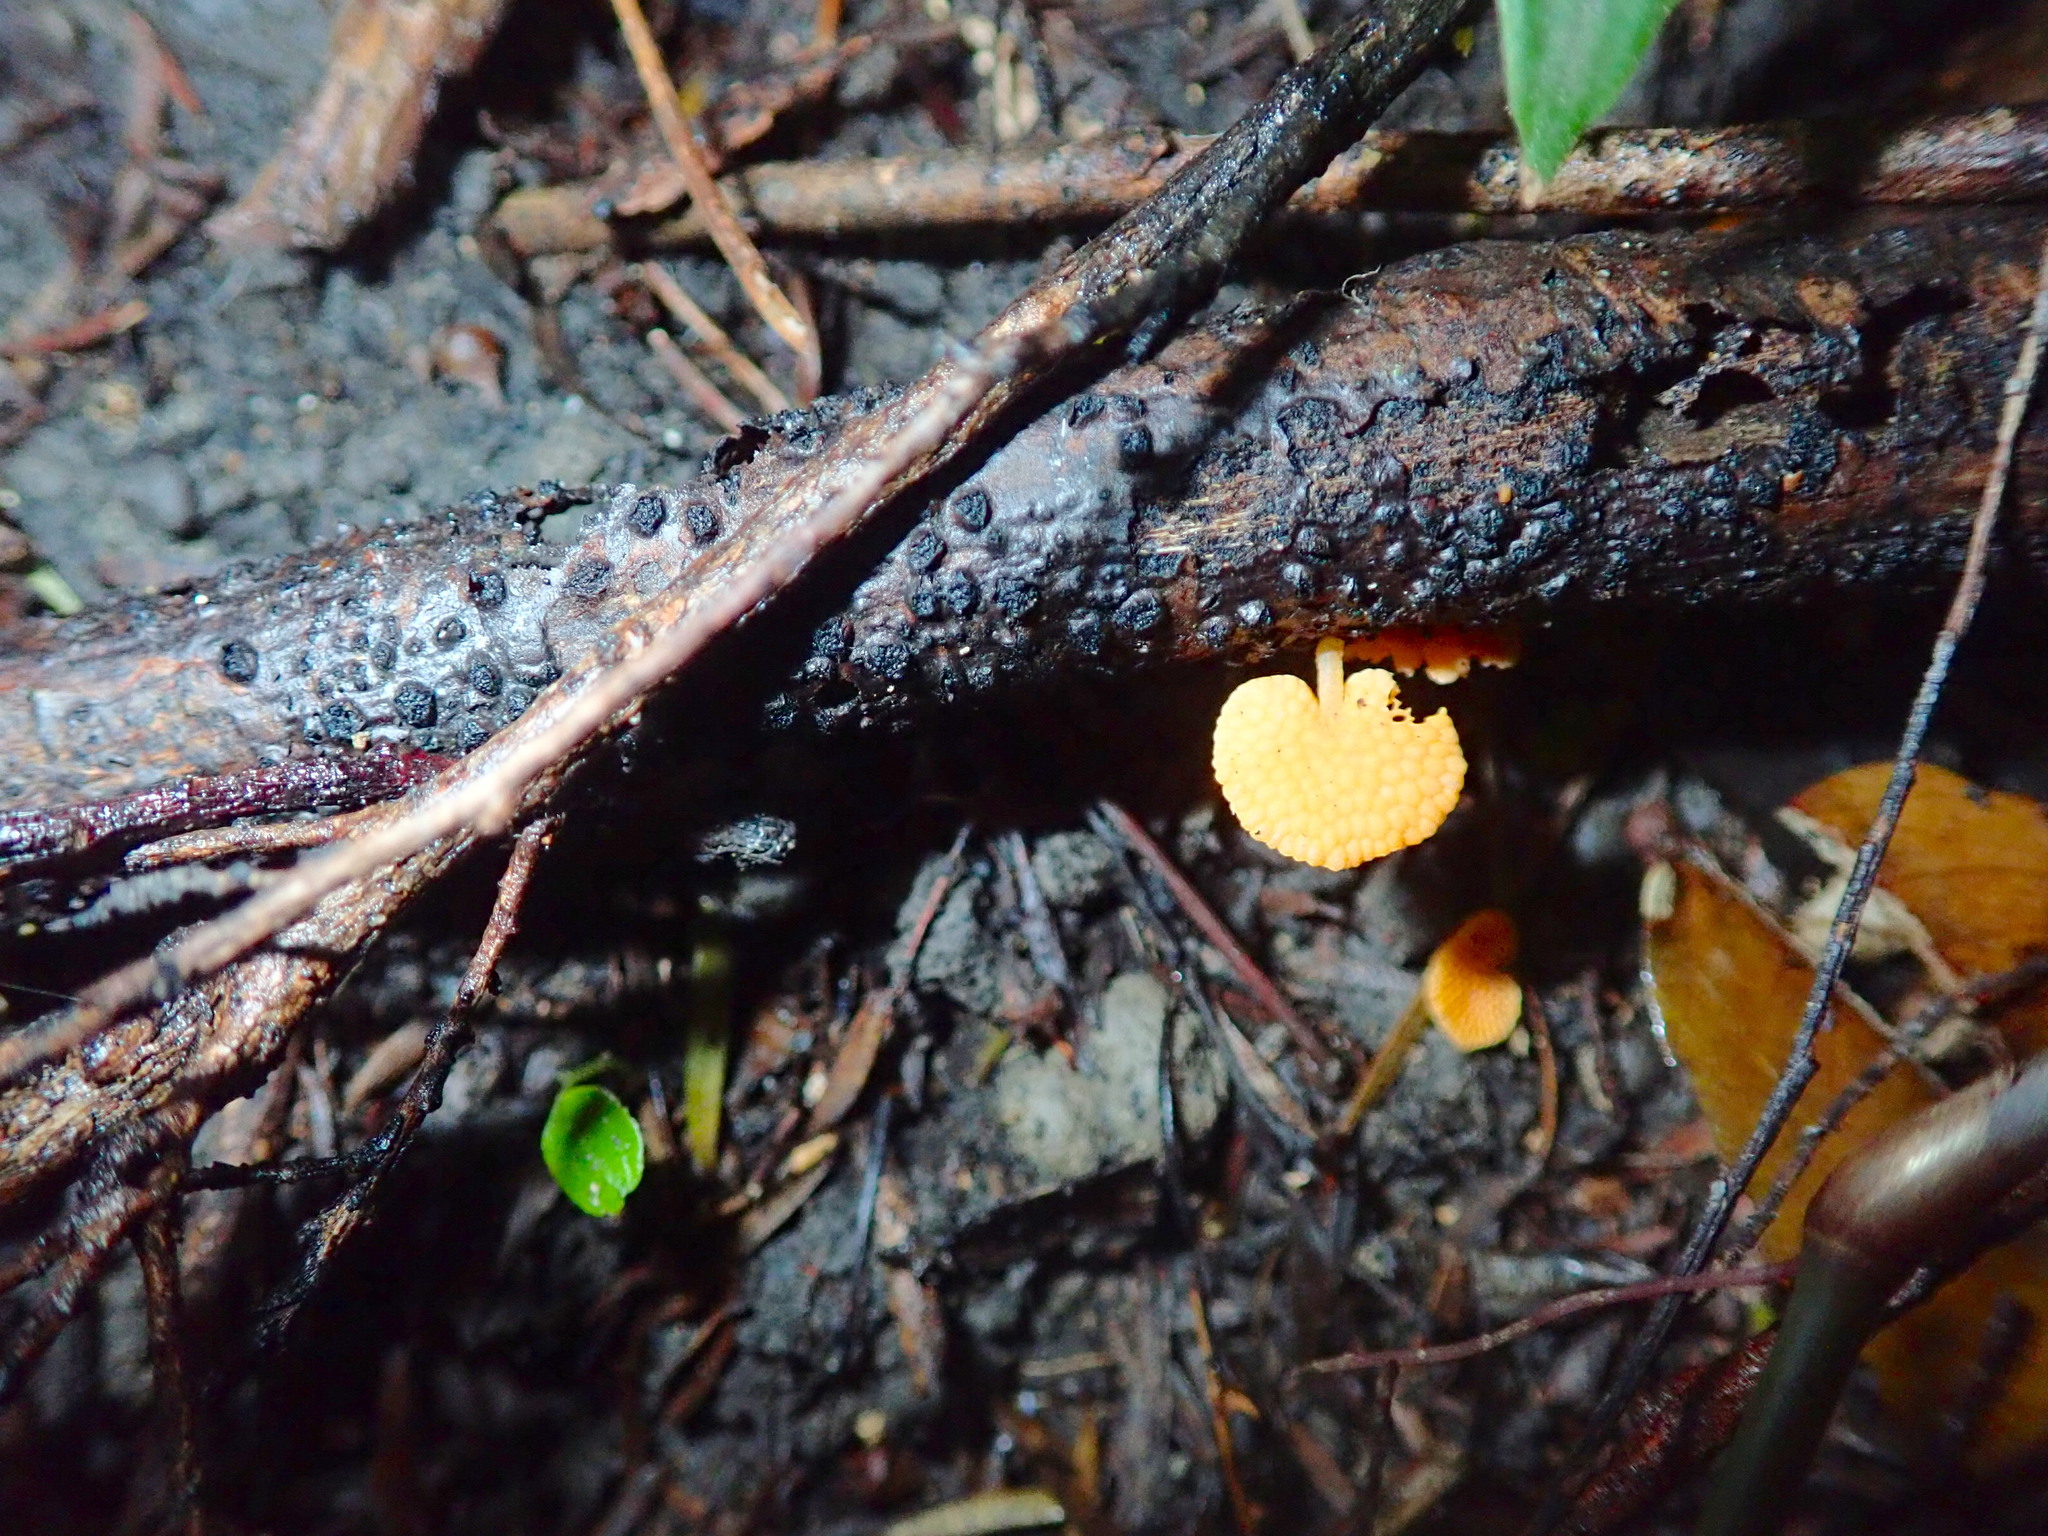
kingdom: Fungi
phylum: Basidiomycota
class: Agaricomycetes
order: Agaricales
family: Mycenaceae
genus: Favolaschia
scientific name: Favolaschia claudopus
